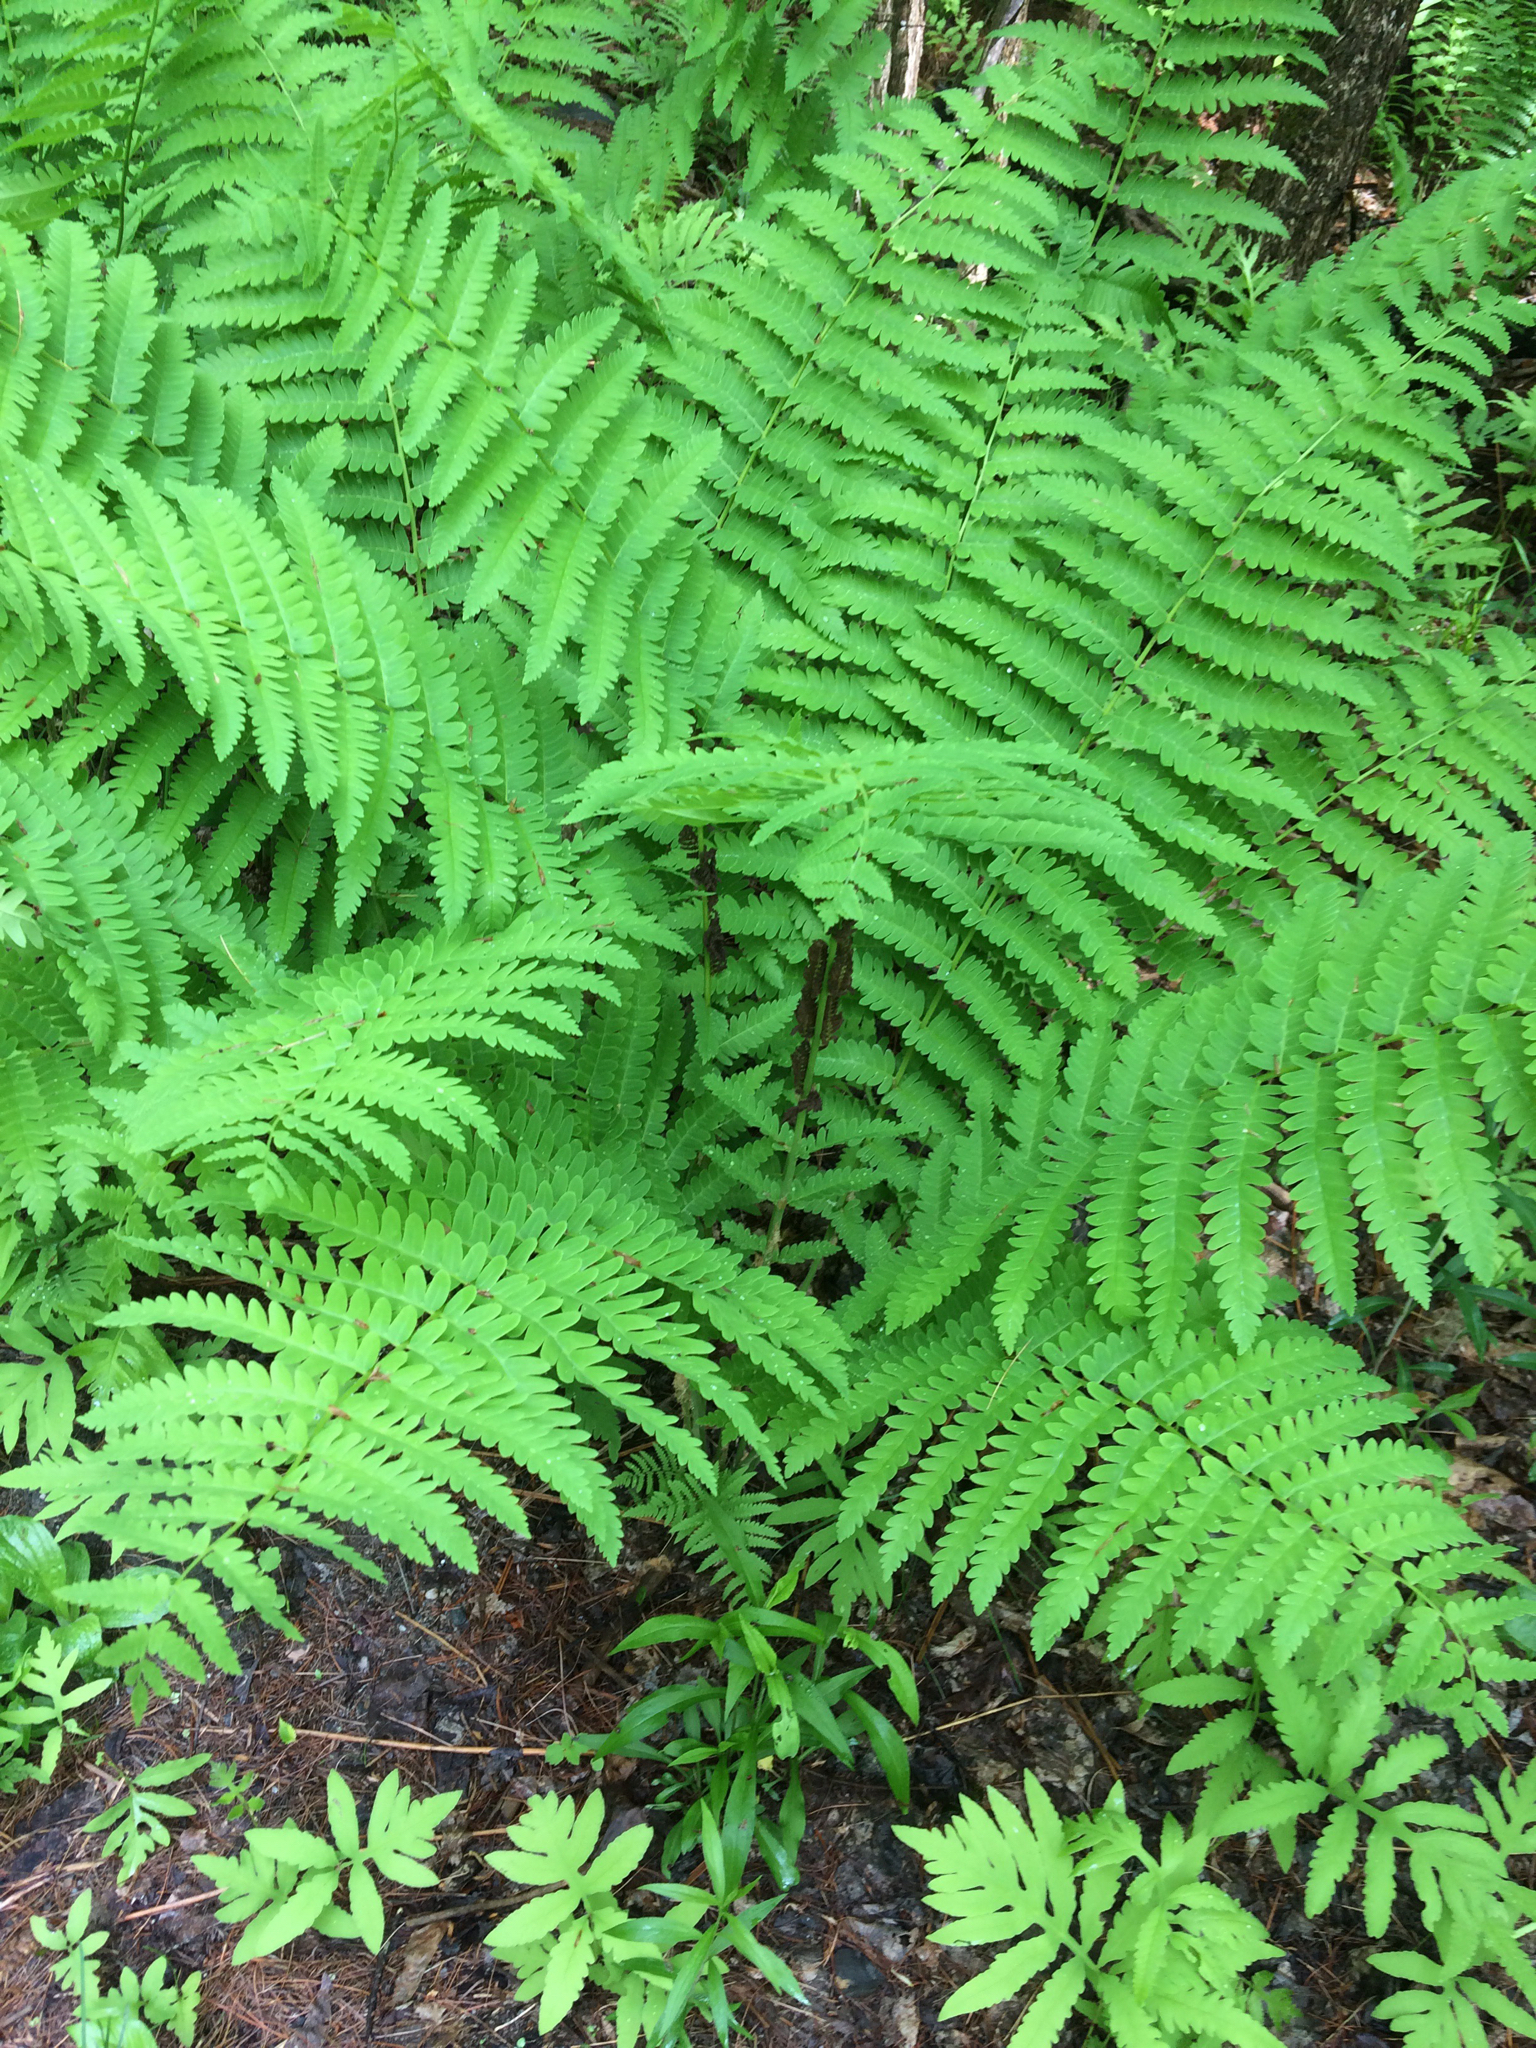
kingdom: Plantae
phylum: Tracheophyta
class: Polypodiopsida
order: Osmundales
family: Osmundaceae
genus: Claytosmunda
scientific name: Claytosmunda claytoniana
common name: Clayton's fern
